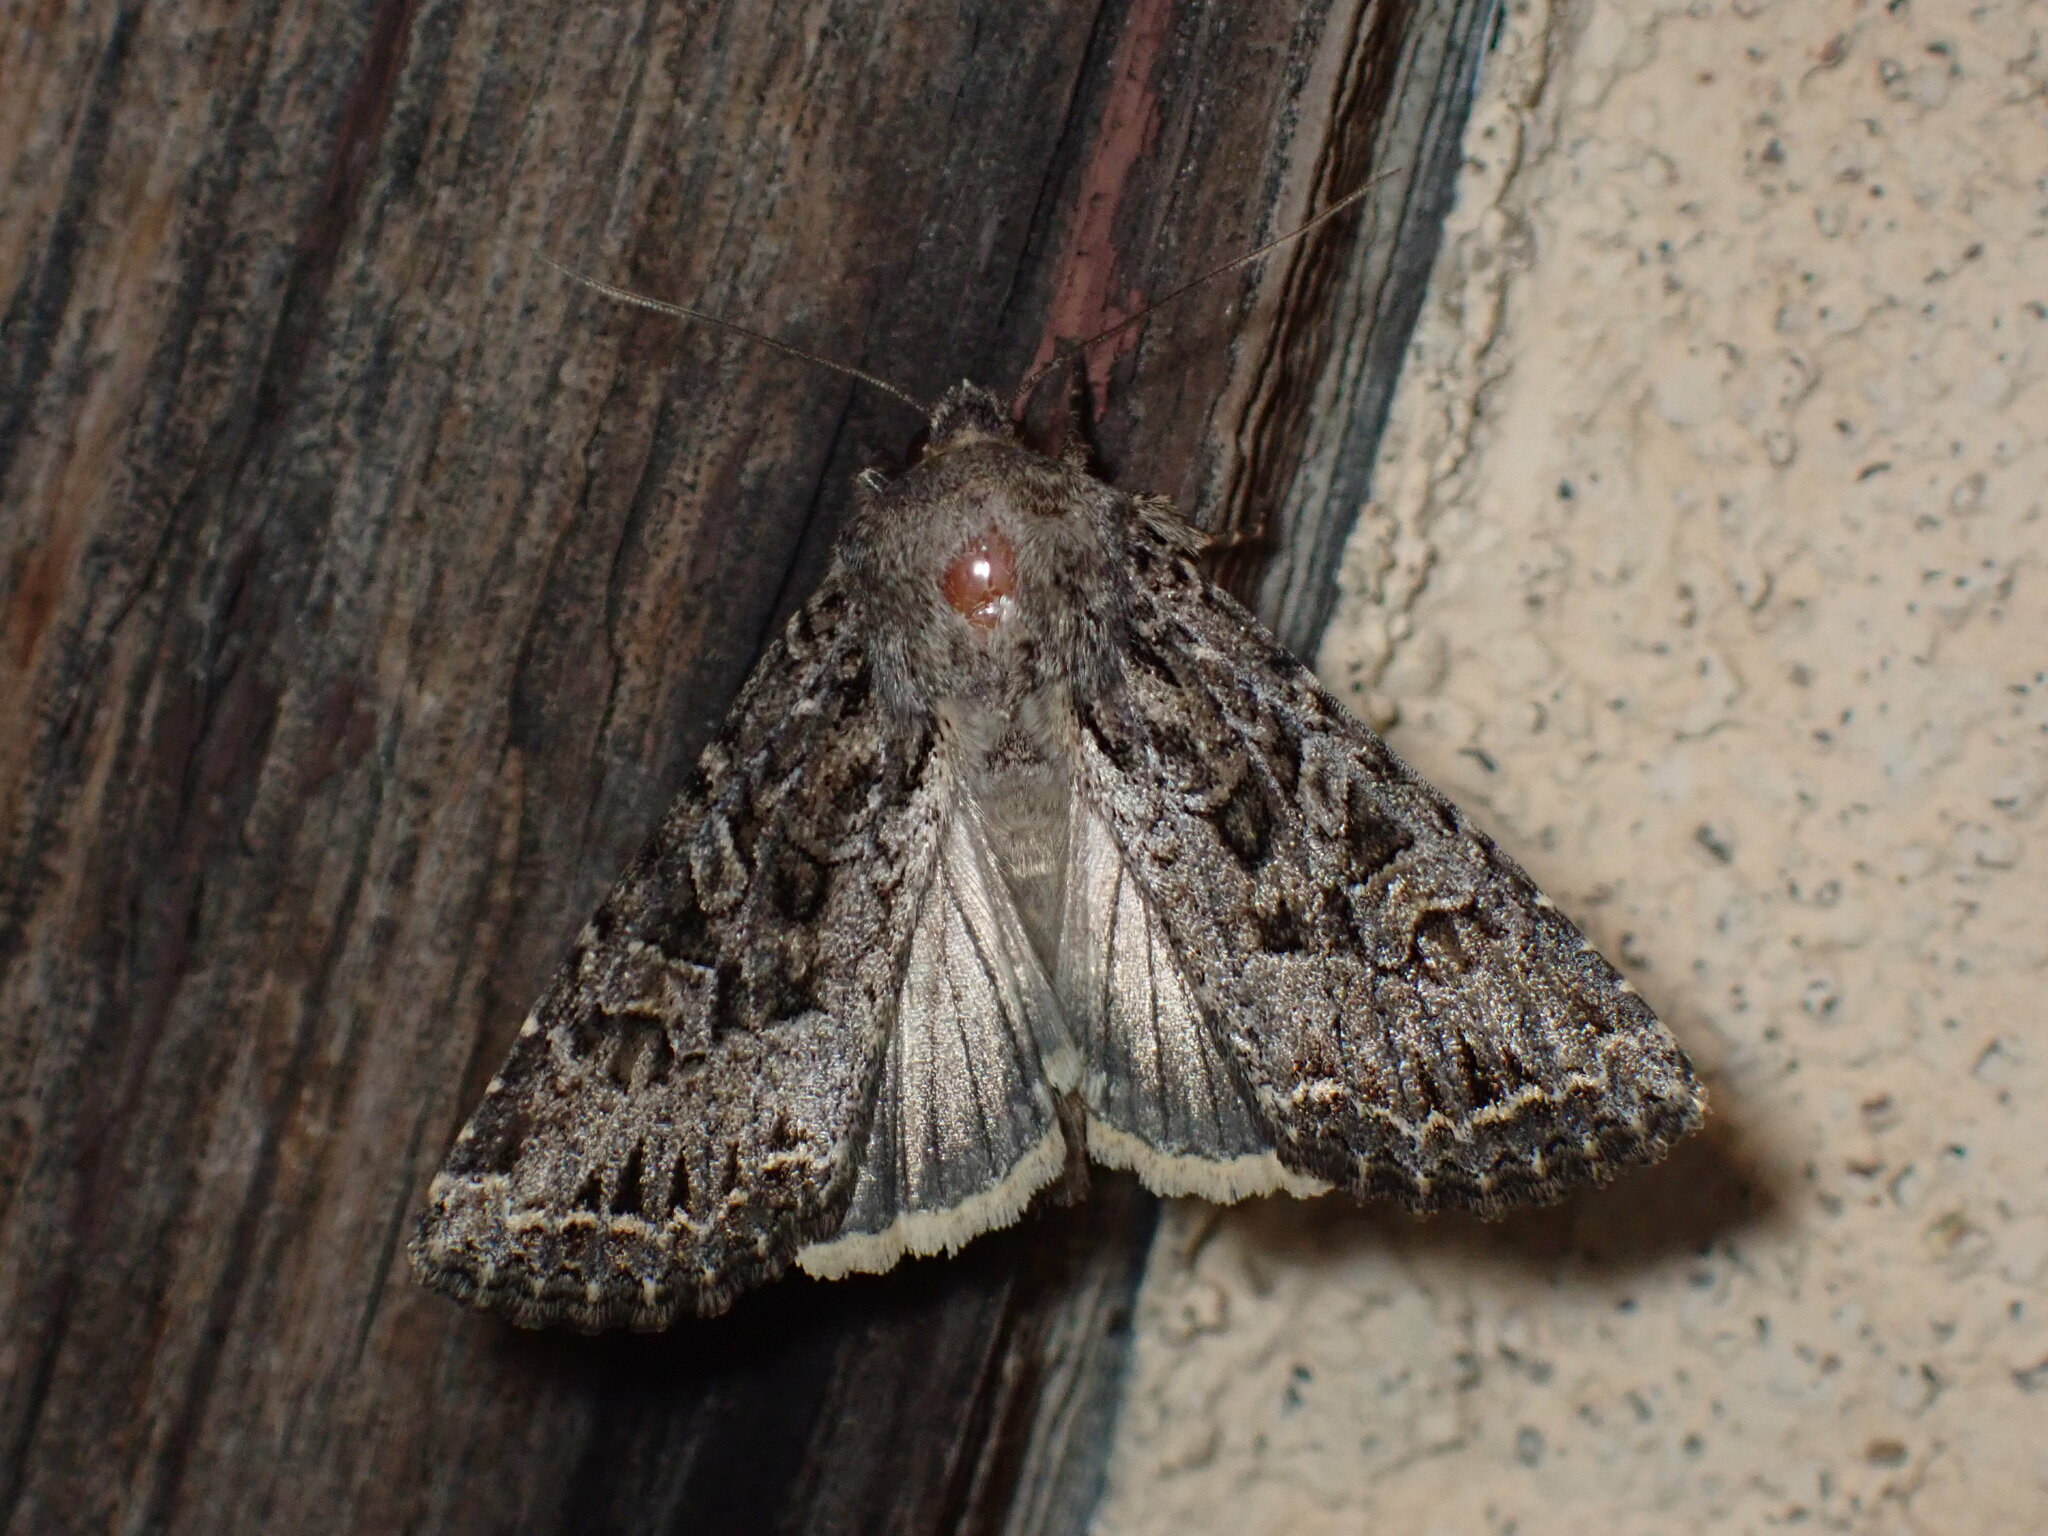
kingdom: Animalia
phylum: Arthropoda
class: Insecta
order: Lepidoptera
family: Noctuidae
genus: Apamea
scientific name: Apamea devastator
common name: Glassy cutworm
